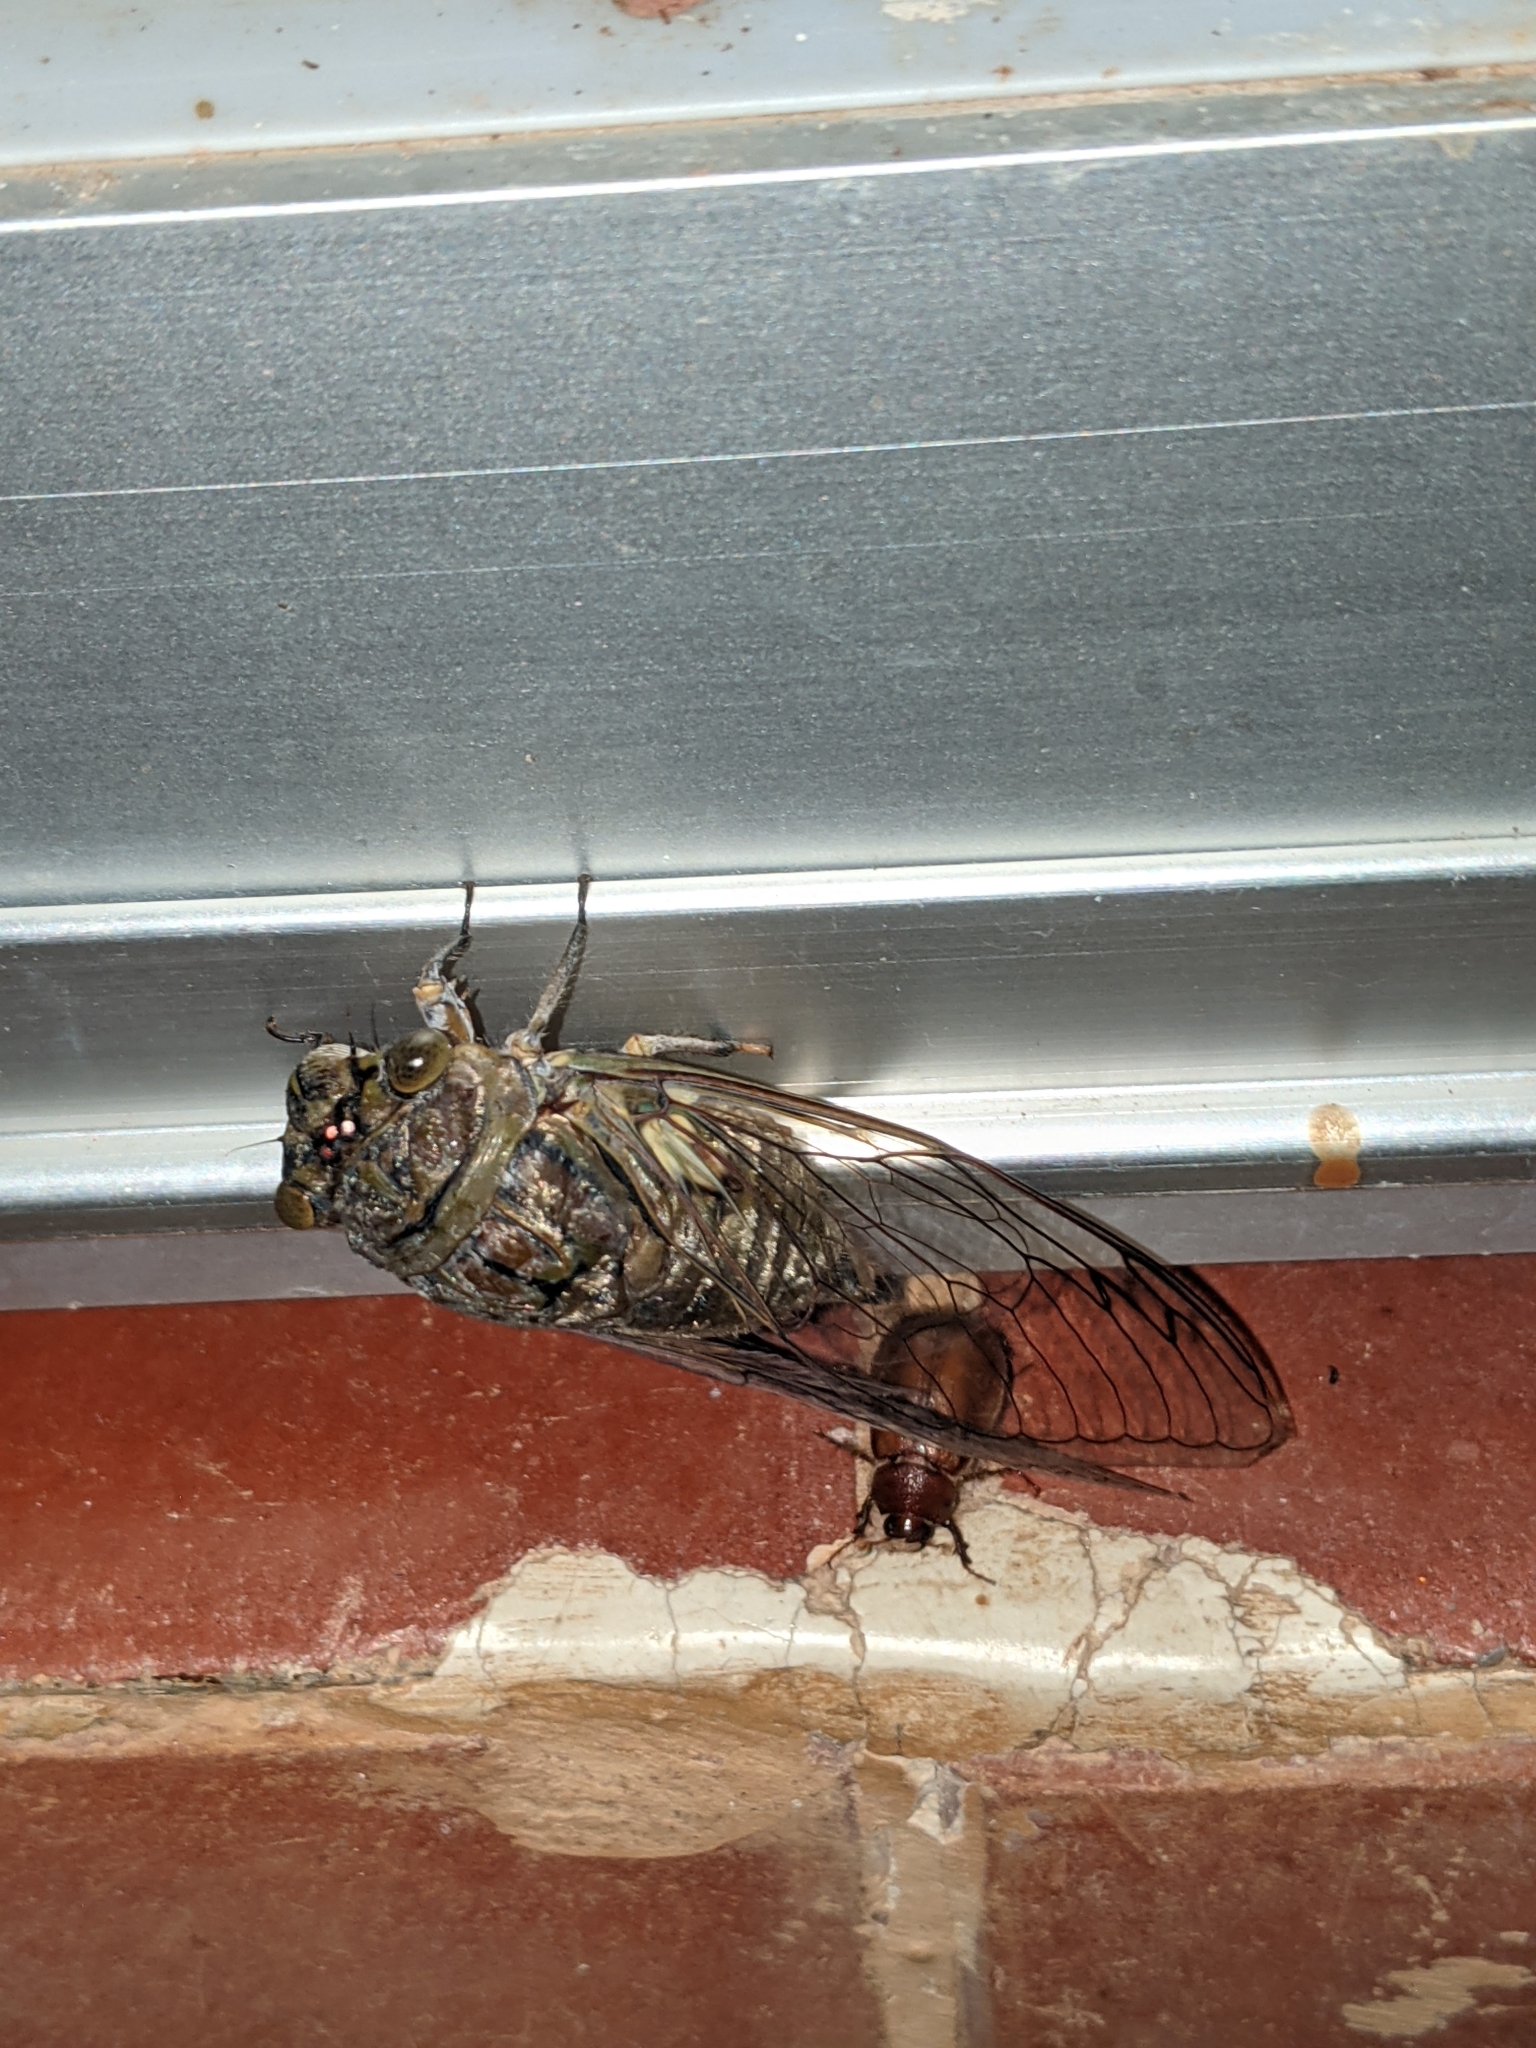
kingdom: Animalia
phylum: Arthropoda
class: Insecta
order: Hemiptera
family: Cicadidae
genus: Quesada
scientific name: Quesada gigas
